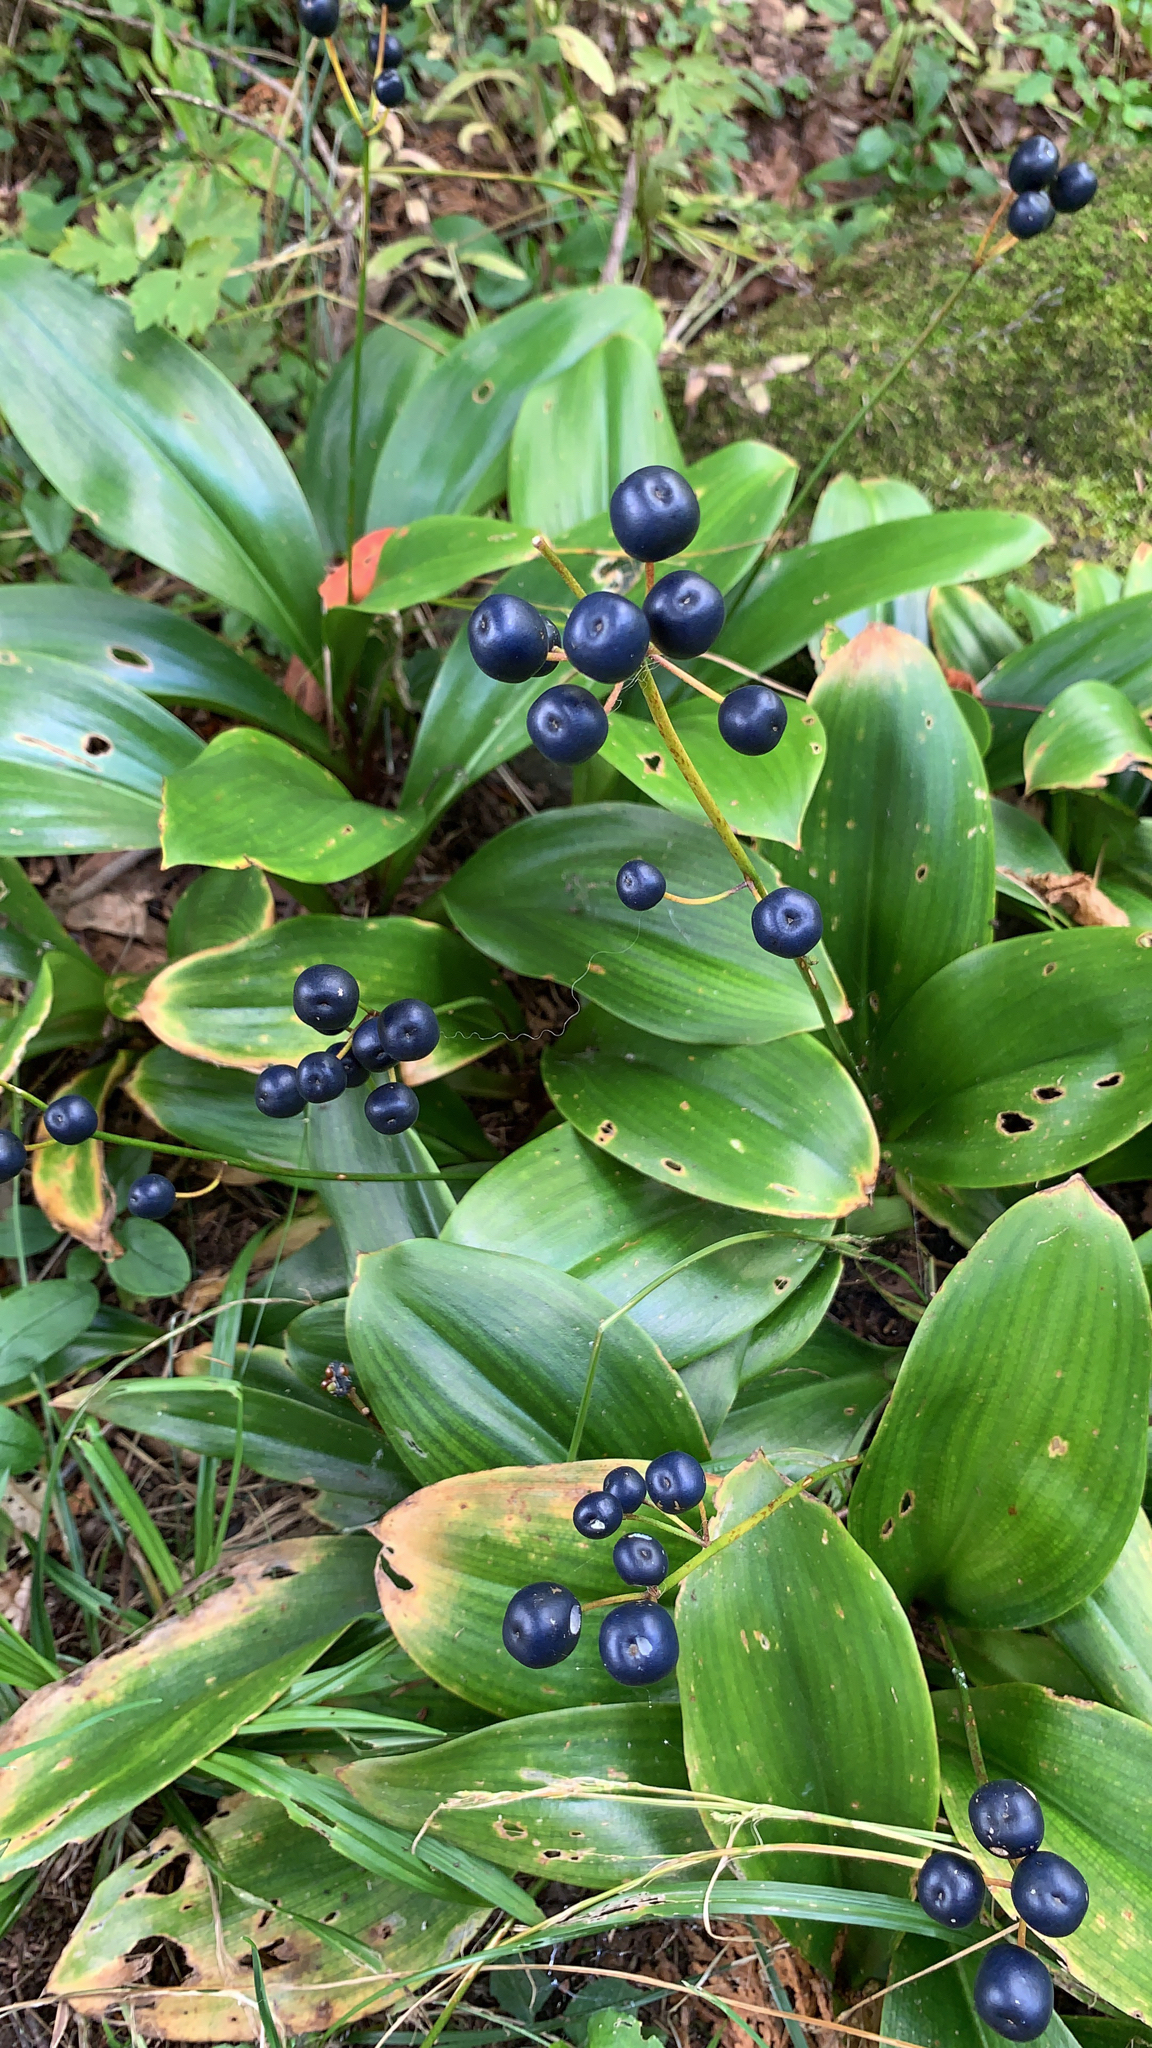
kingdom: Plantae
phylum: Tracheophyta
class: Liliopsida
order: Liliales
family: Liliaceae
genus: Clintonia
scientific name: Clintonia borealis
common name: Yellow clintonia
